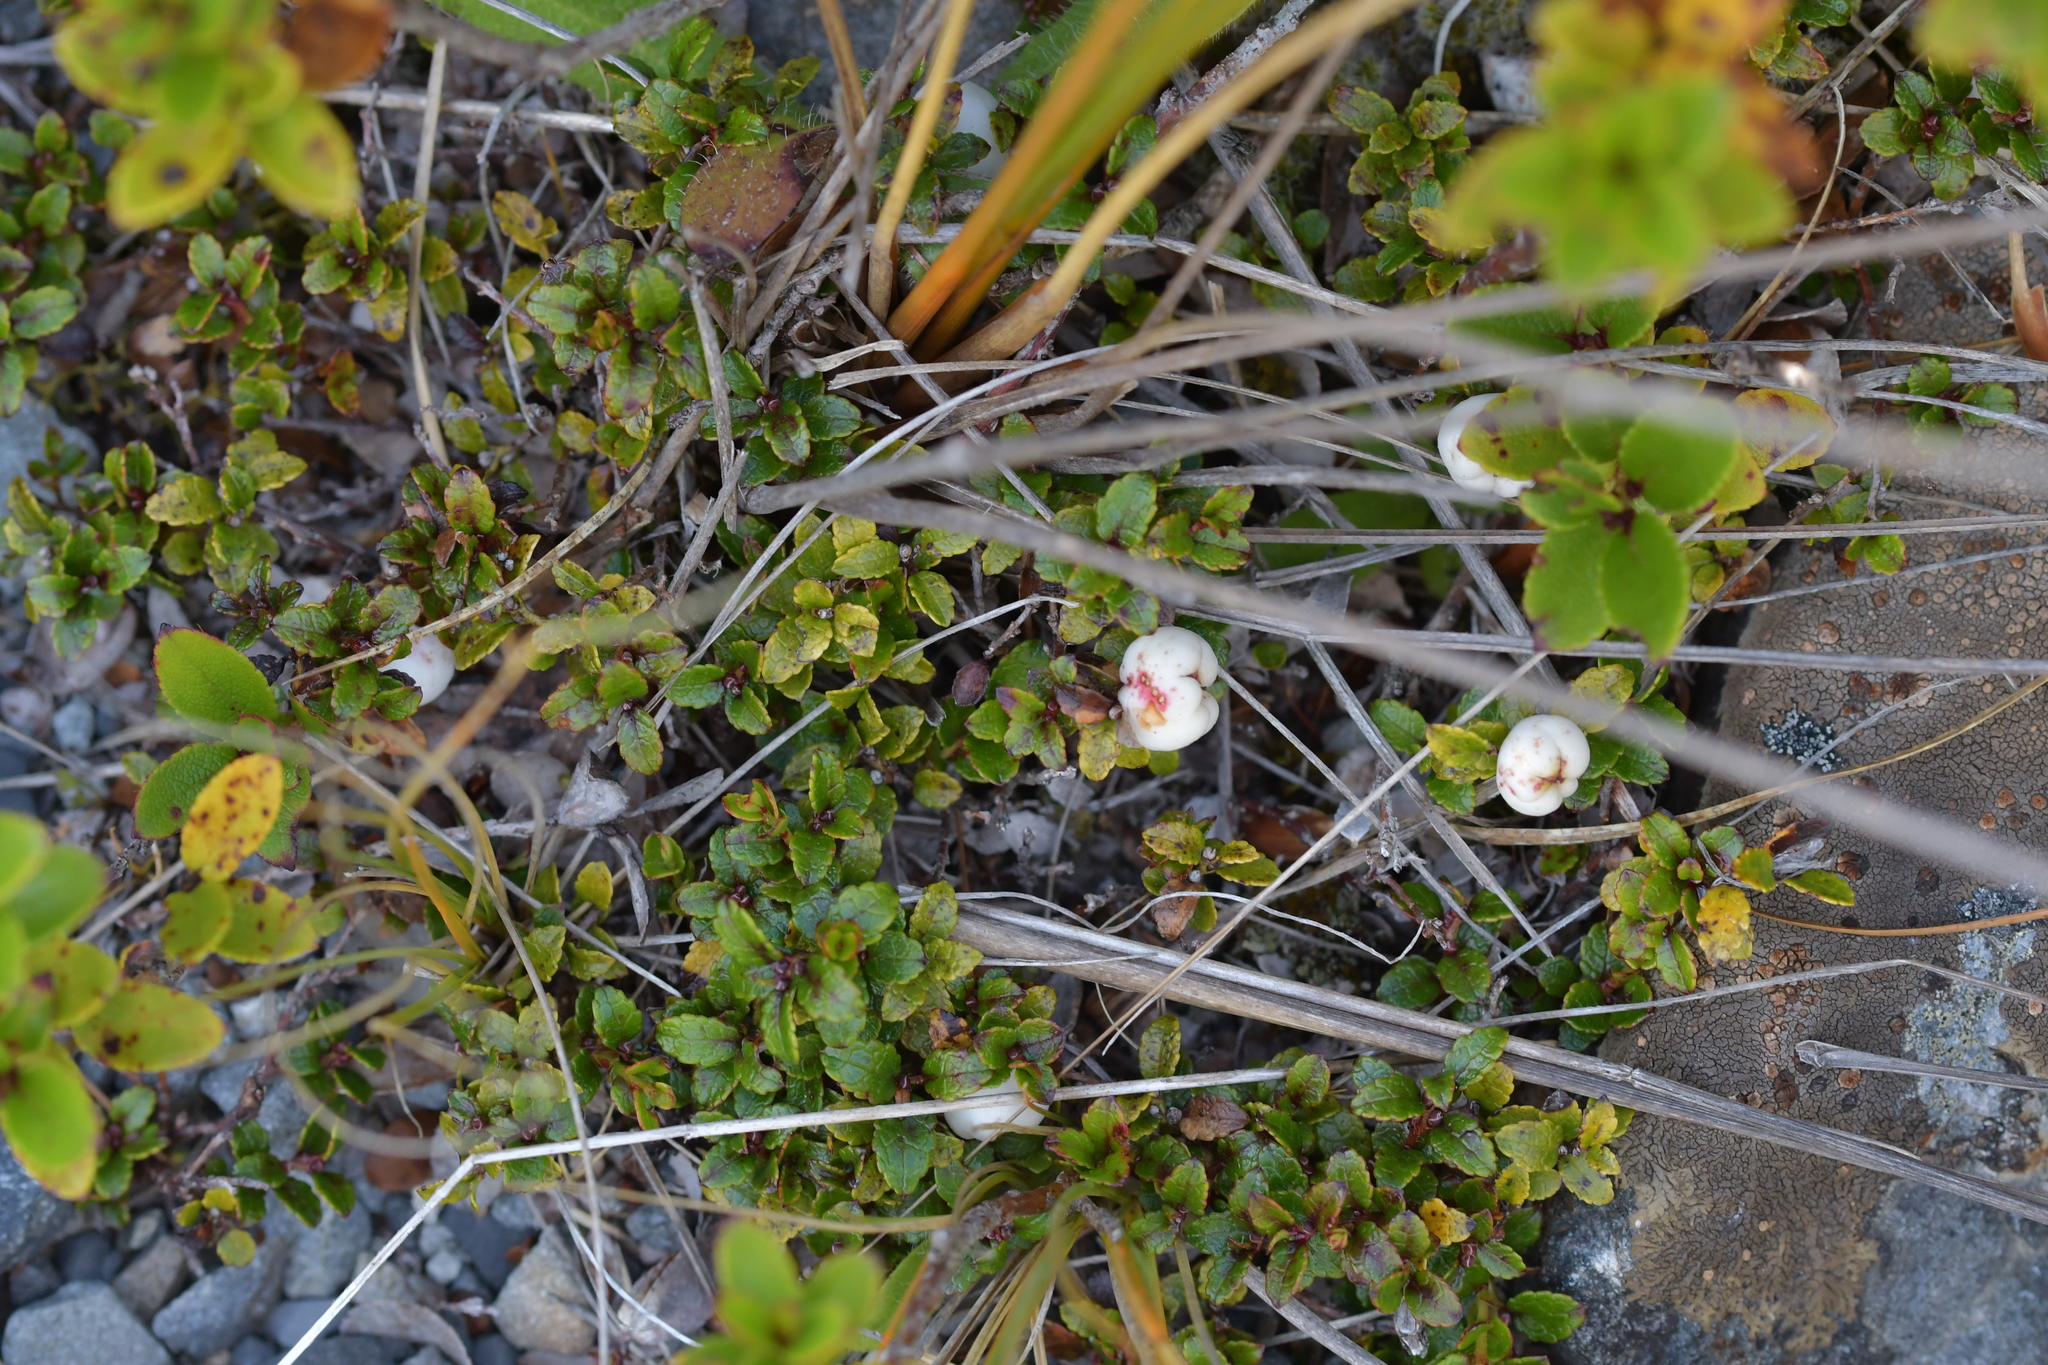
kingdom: Plantae
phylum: Tracheophyta
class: Magnoliopsida
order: Ericales
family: Ericaceae
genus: Gaultheria
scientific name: Gaultheria depressa
